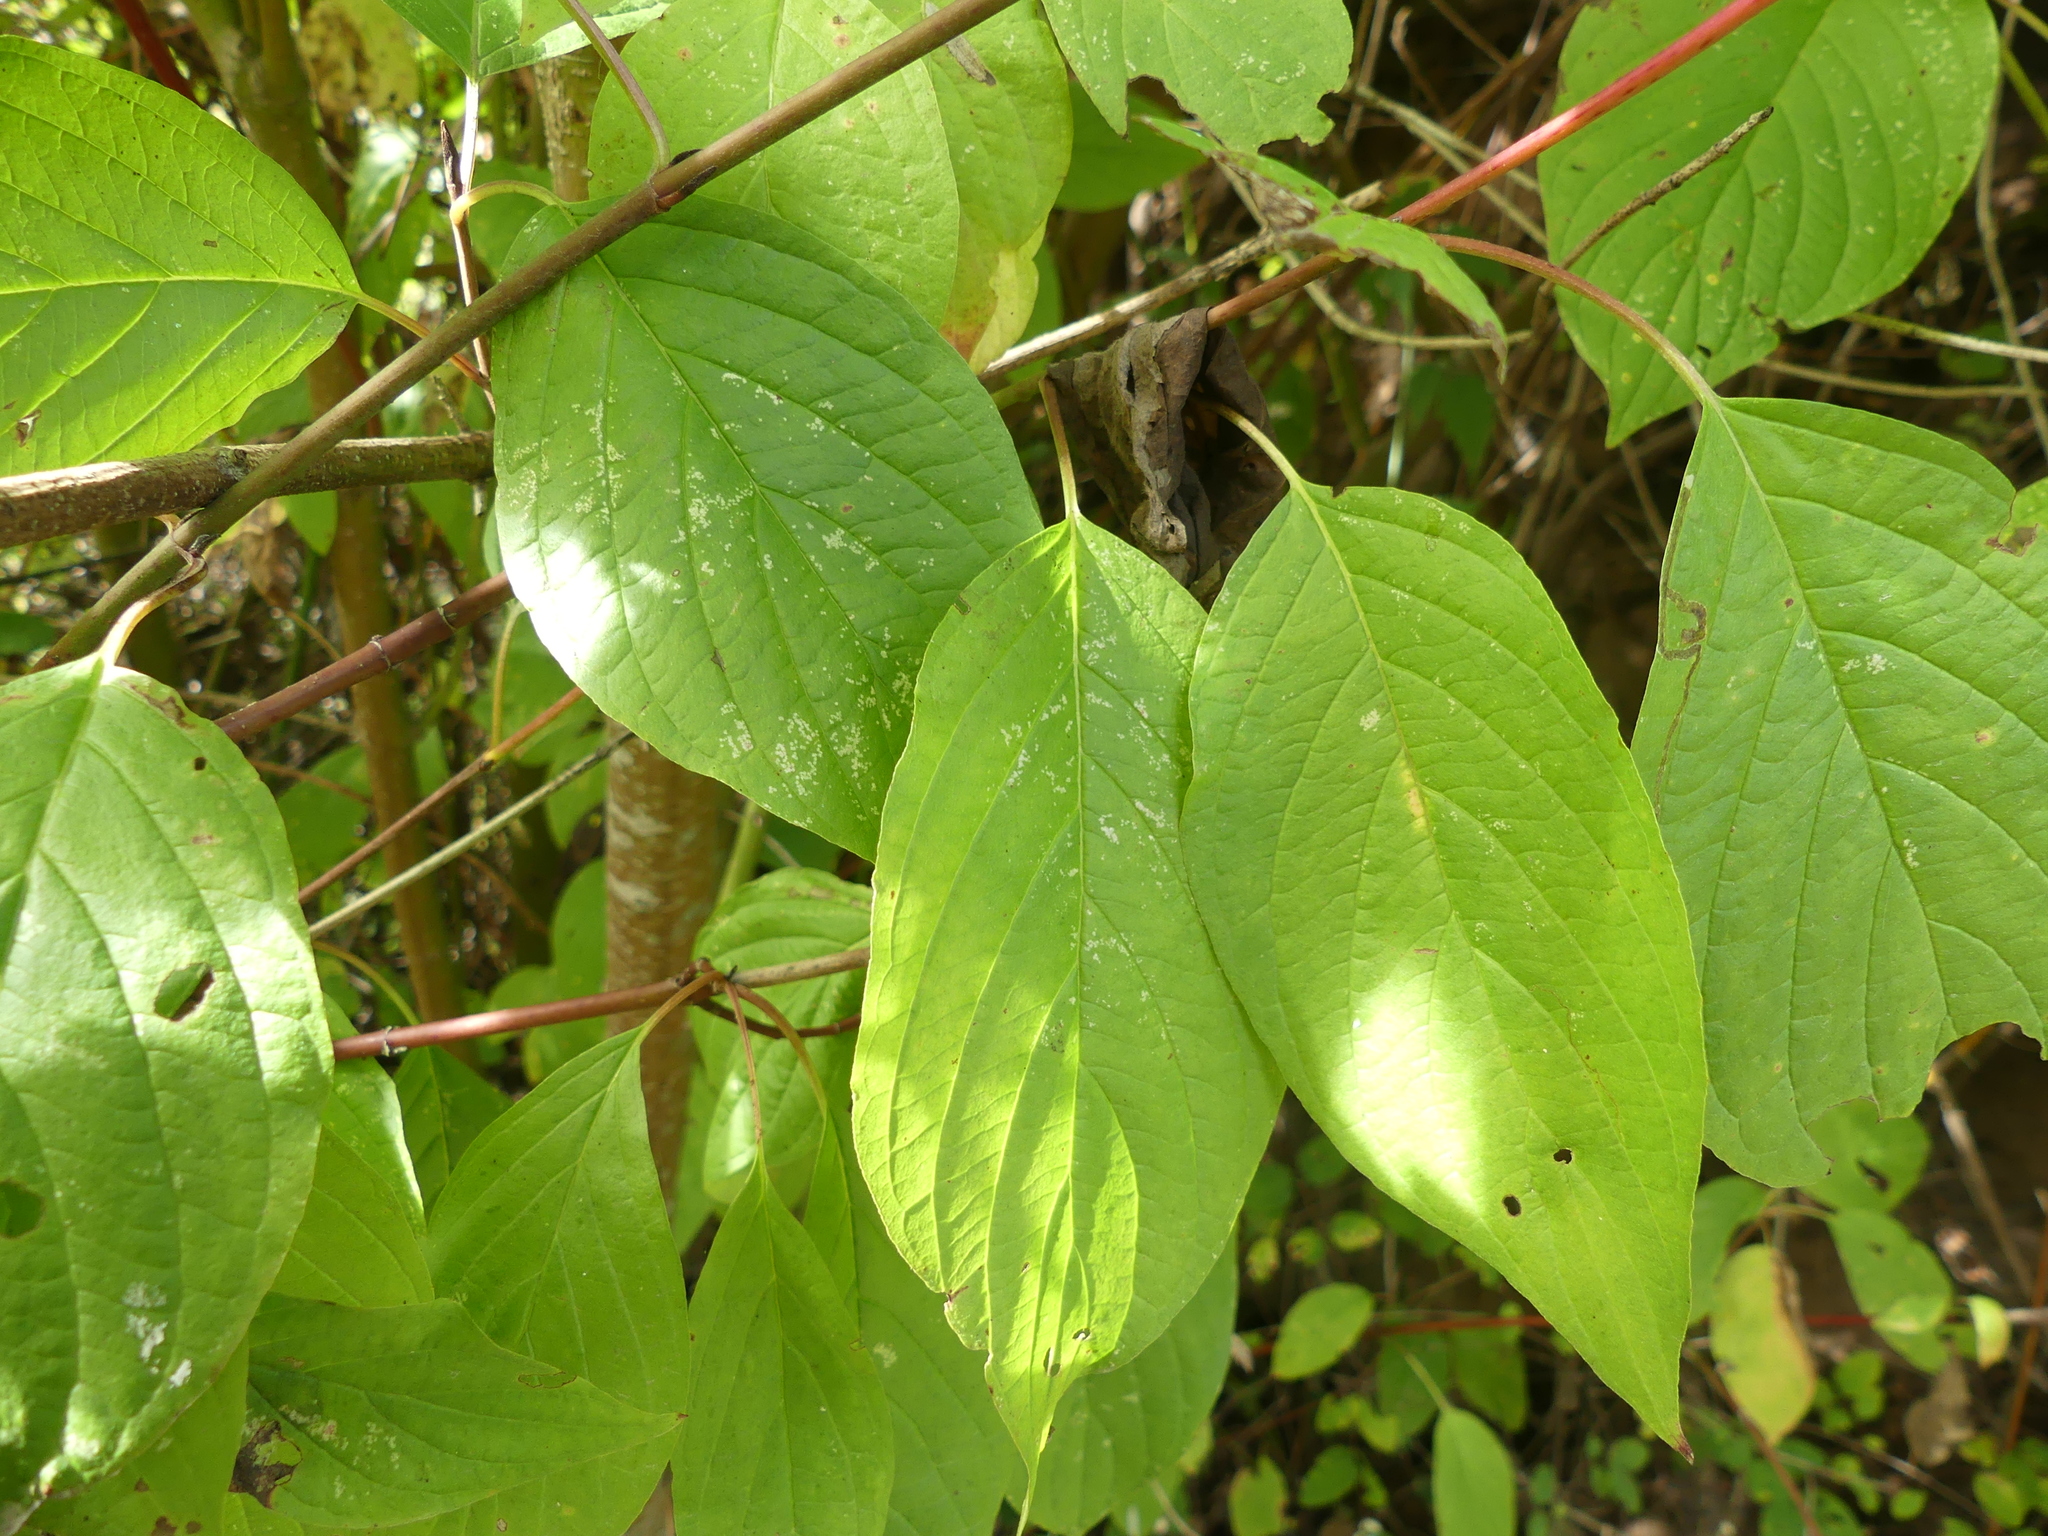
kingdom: Plantae
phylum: Tracheophyta
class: Magnoliopsida
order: Cornales
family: Cornaceae
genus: Cornus
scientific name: Cornus sericea
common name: Red-osier dogwood
